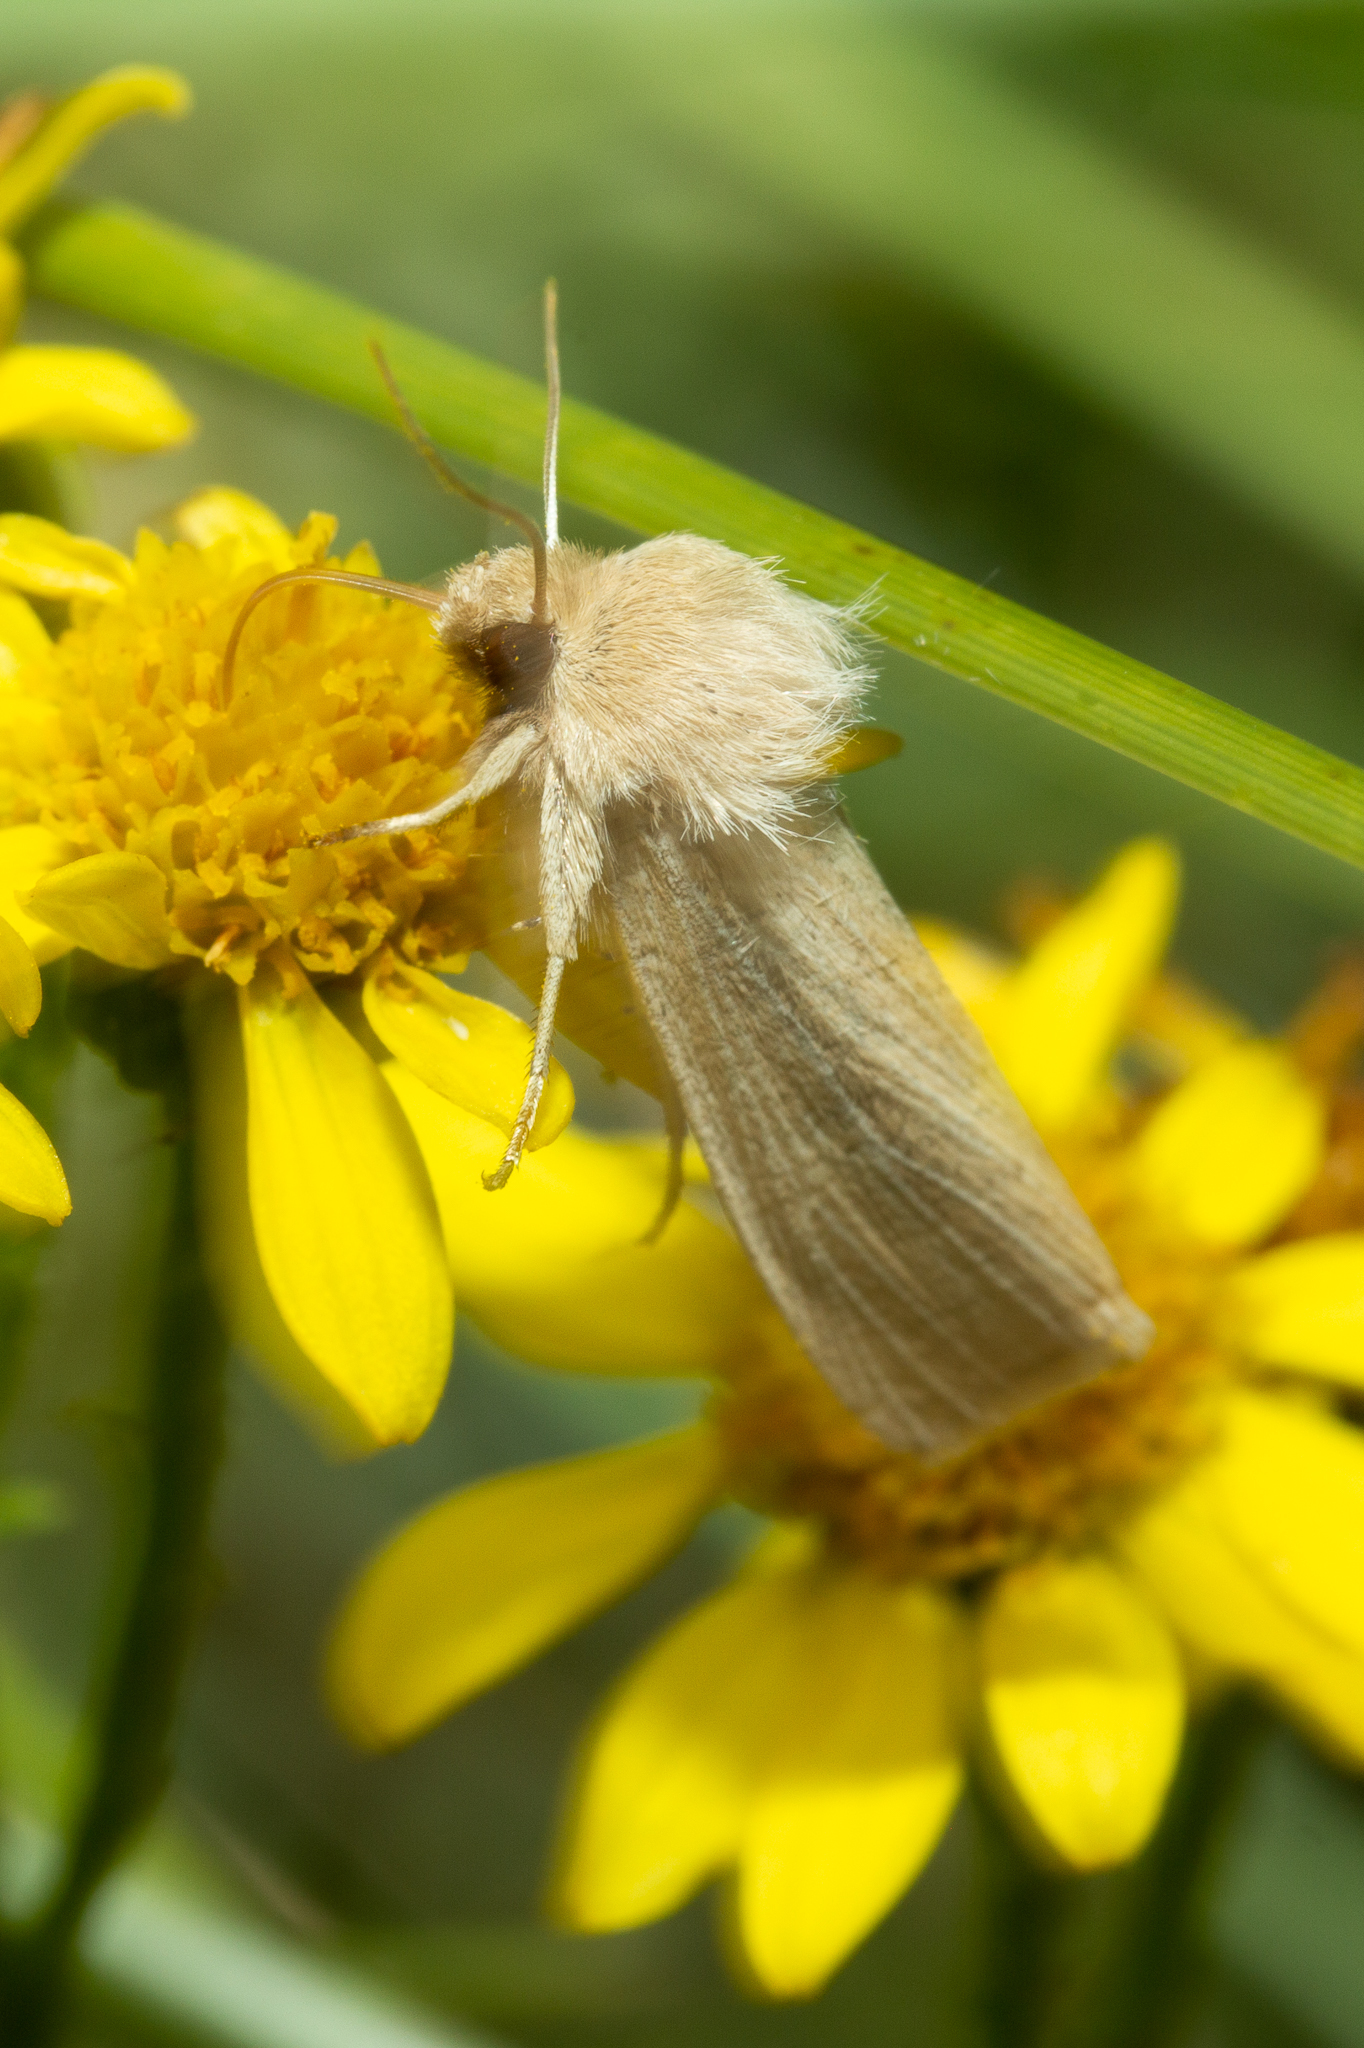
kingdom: Animalia
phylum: Arthropoda
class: Insecta
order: Lepidoptera
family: Noctuidae
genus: Mythimna
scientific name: Mythimna pallens
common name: Common wainscot
